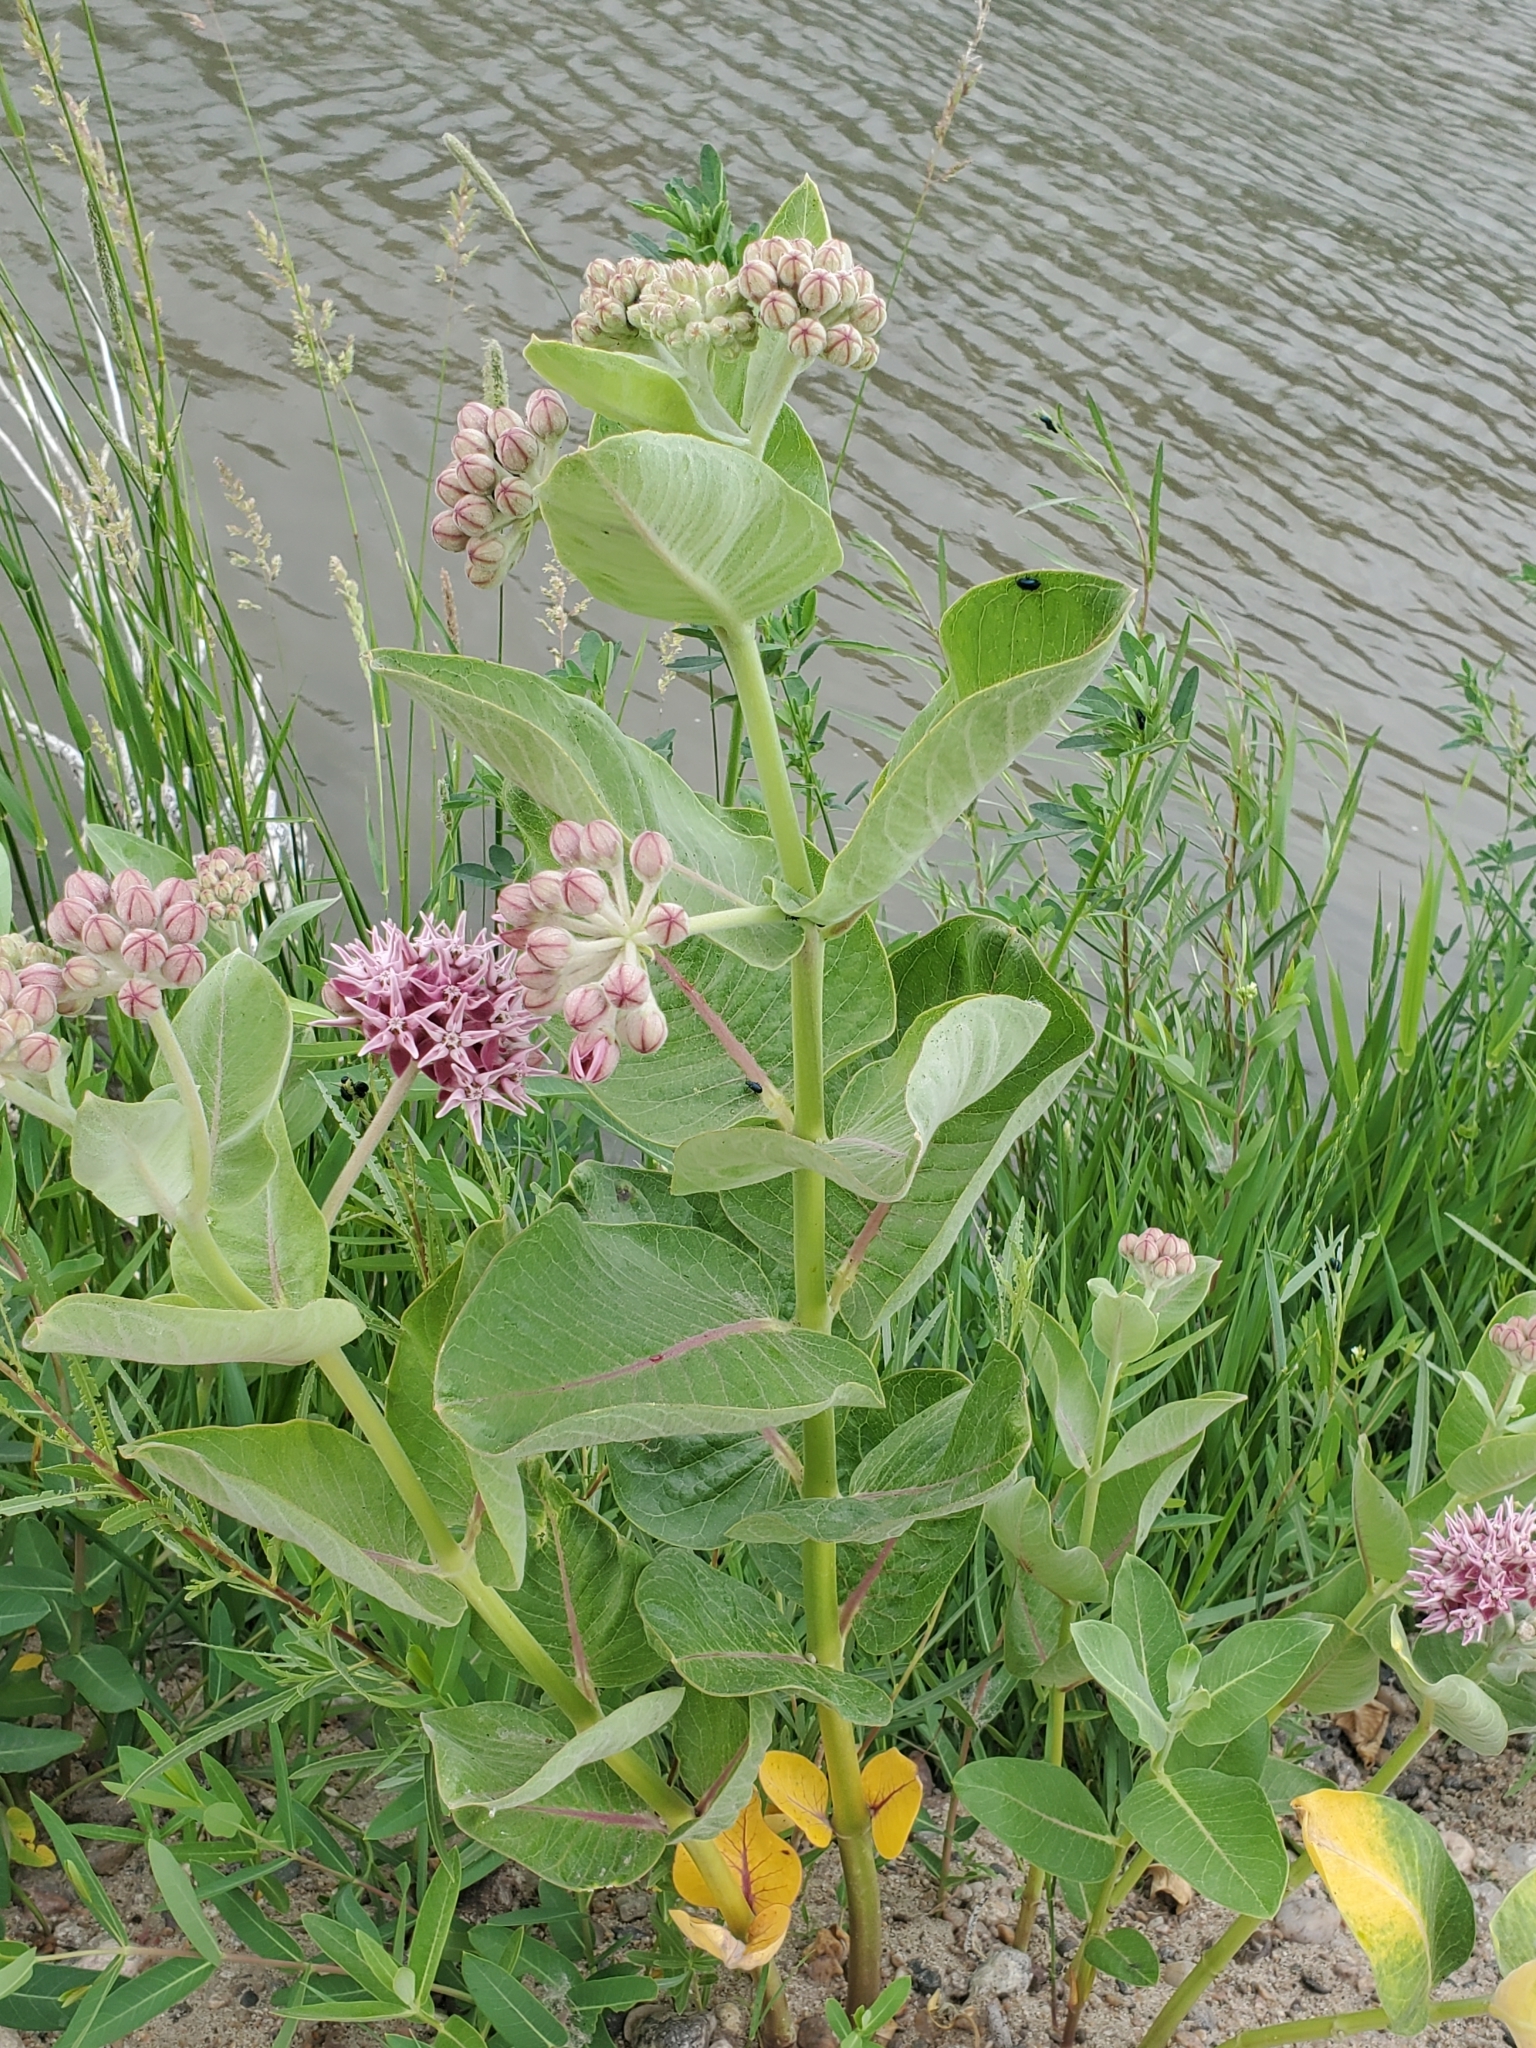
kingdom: Plantae
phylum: Tracheophyta
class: Magnoliopsida
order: Gentianales
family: Apocynaceae
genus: Asclepias
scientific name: Asclepias speciosa
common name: Showy milkweed
